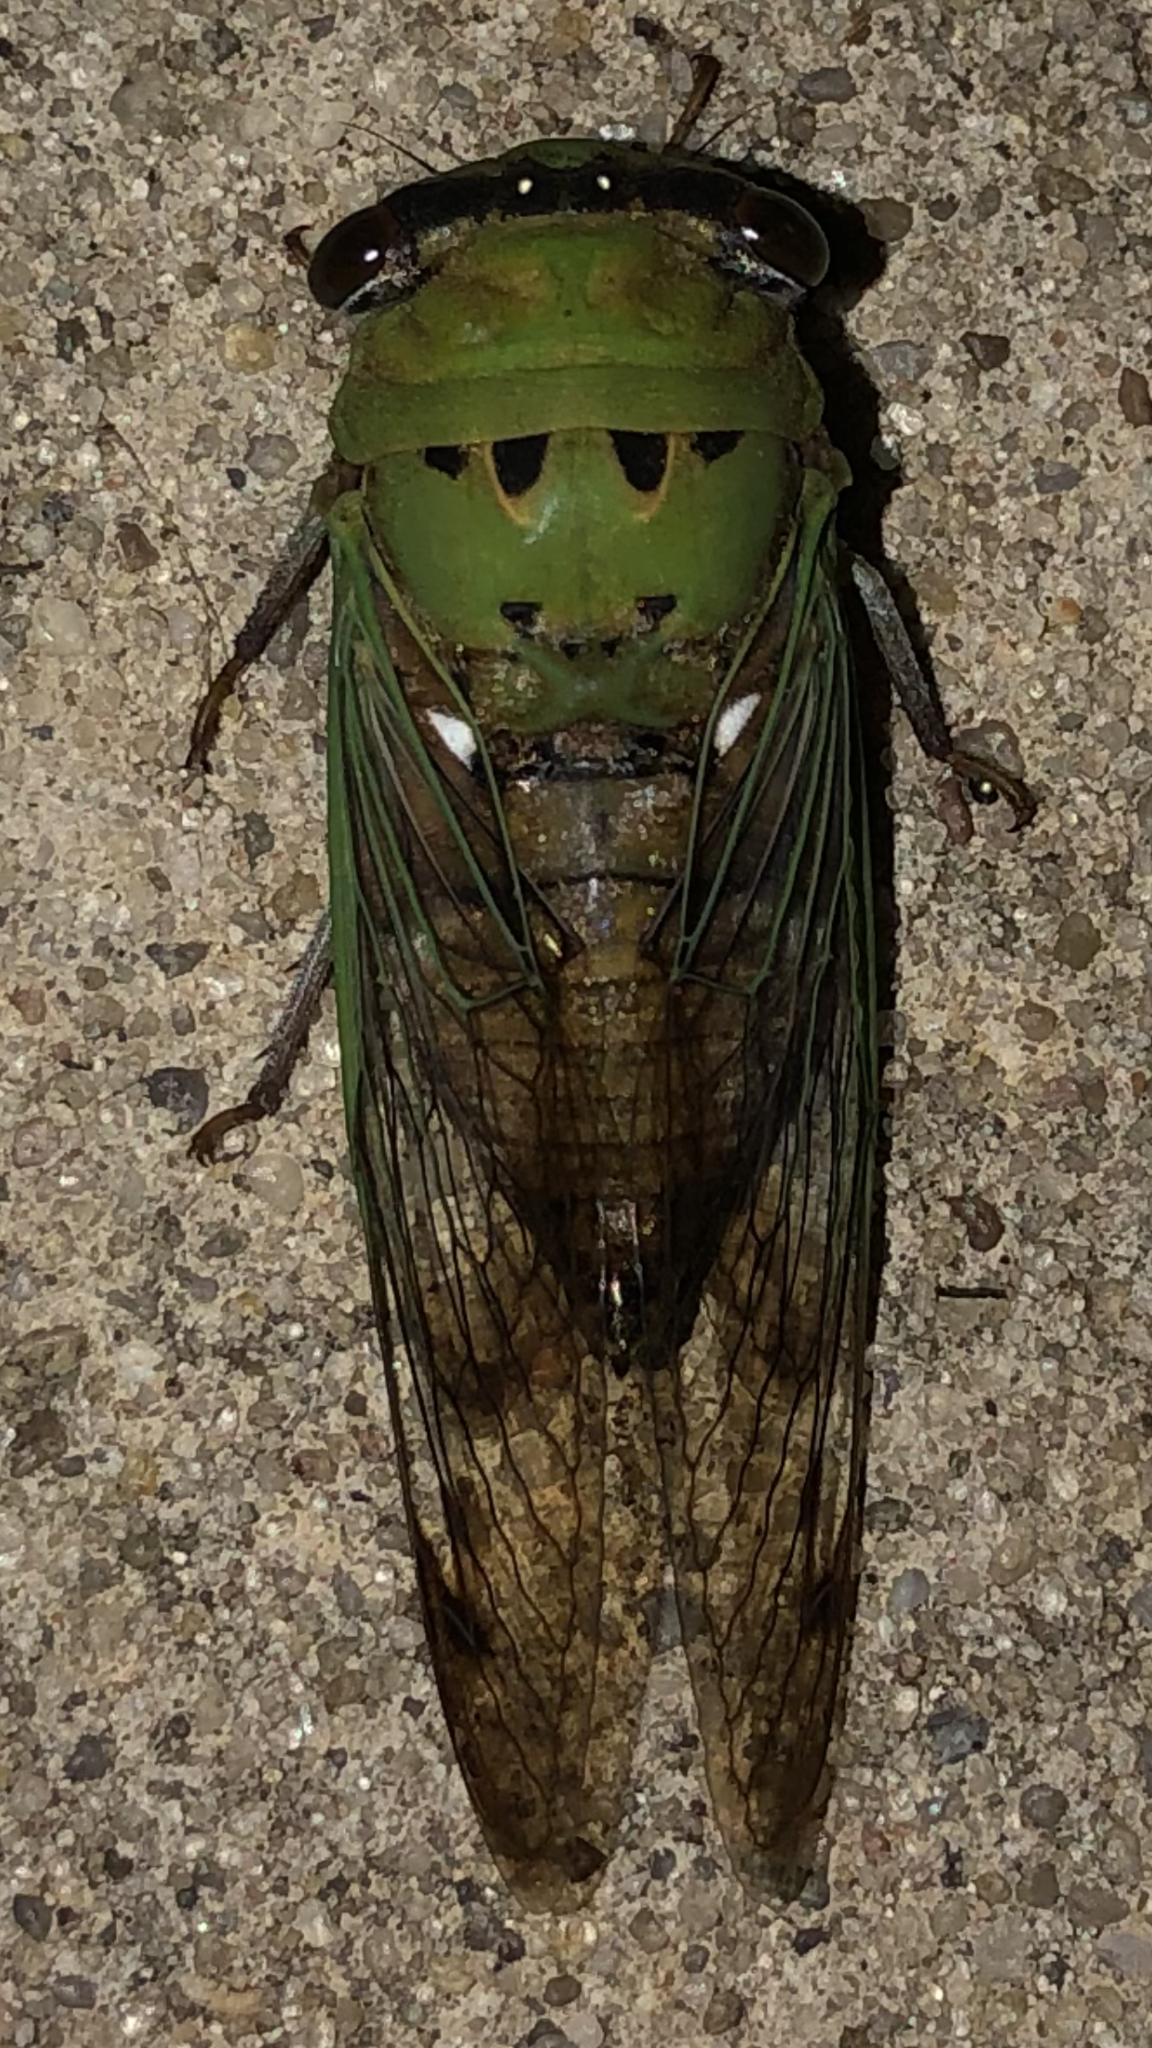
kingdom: Animalia
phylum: Arthropoda
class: Insecta
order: Hemiptera
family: Cicadidae
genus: Neotibicen
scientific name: Neotibicen superbus
